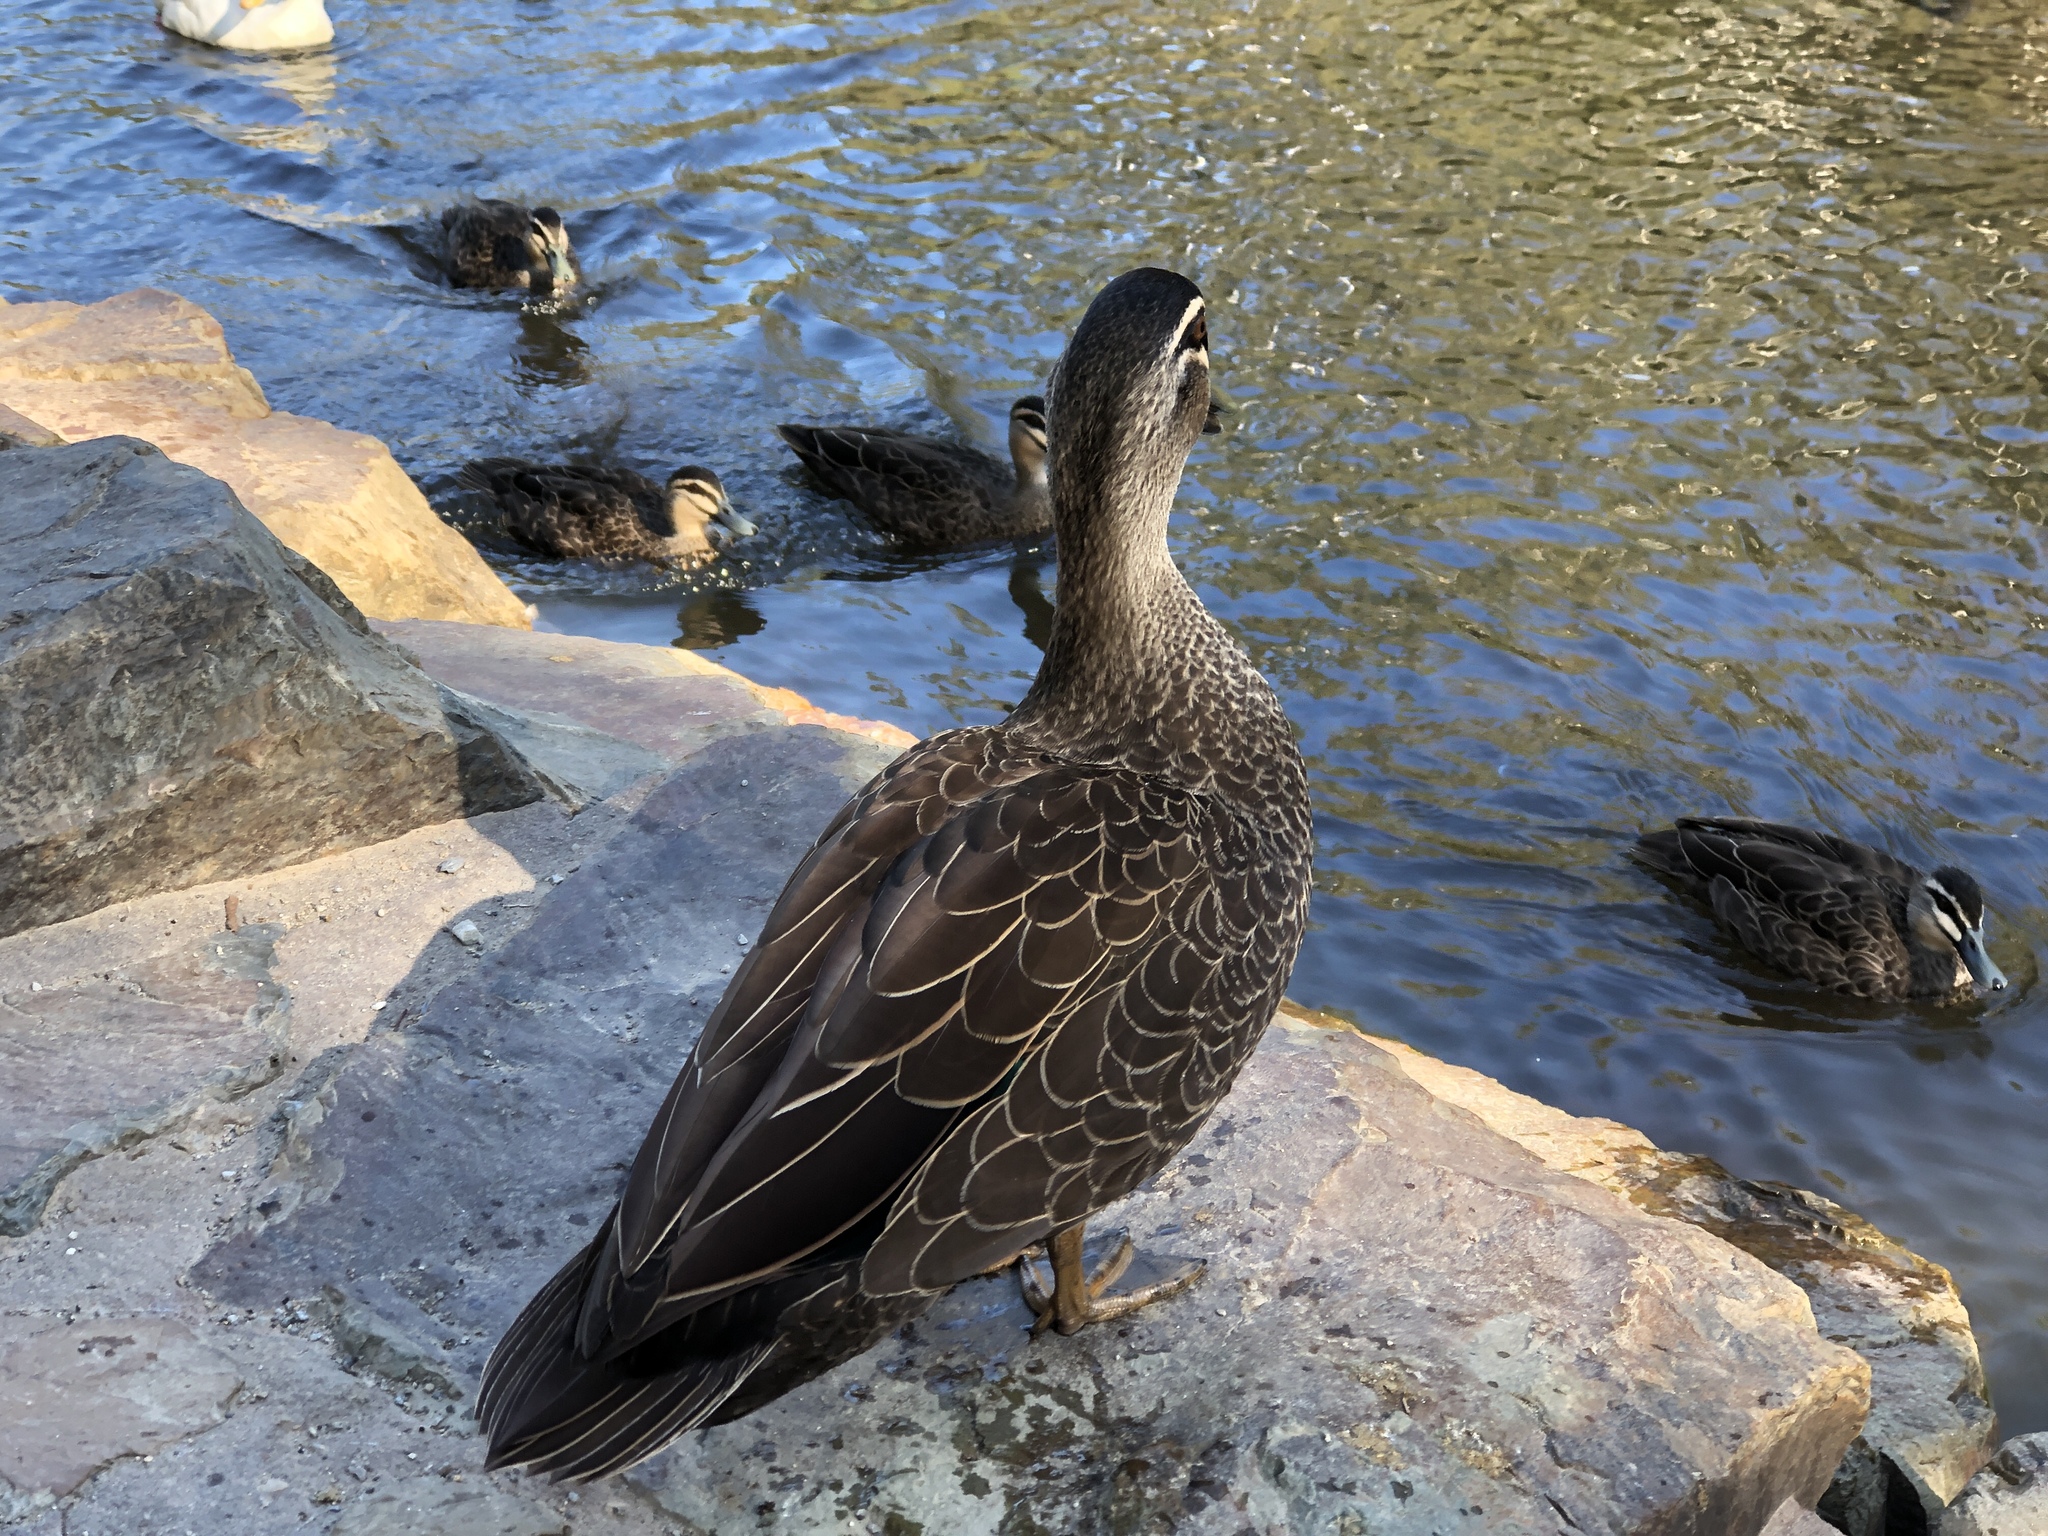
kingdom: Animalia
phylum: Chordata
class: Aves
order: Anseriformes
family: Anatidae
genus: Anas
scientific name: Anas superciliosa
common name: Pacific black duck
